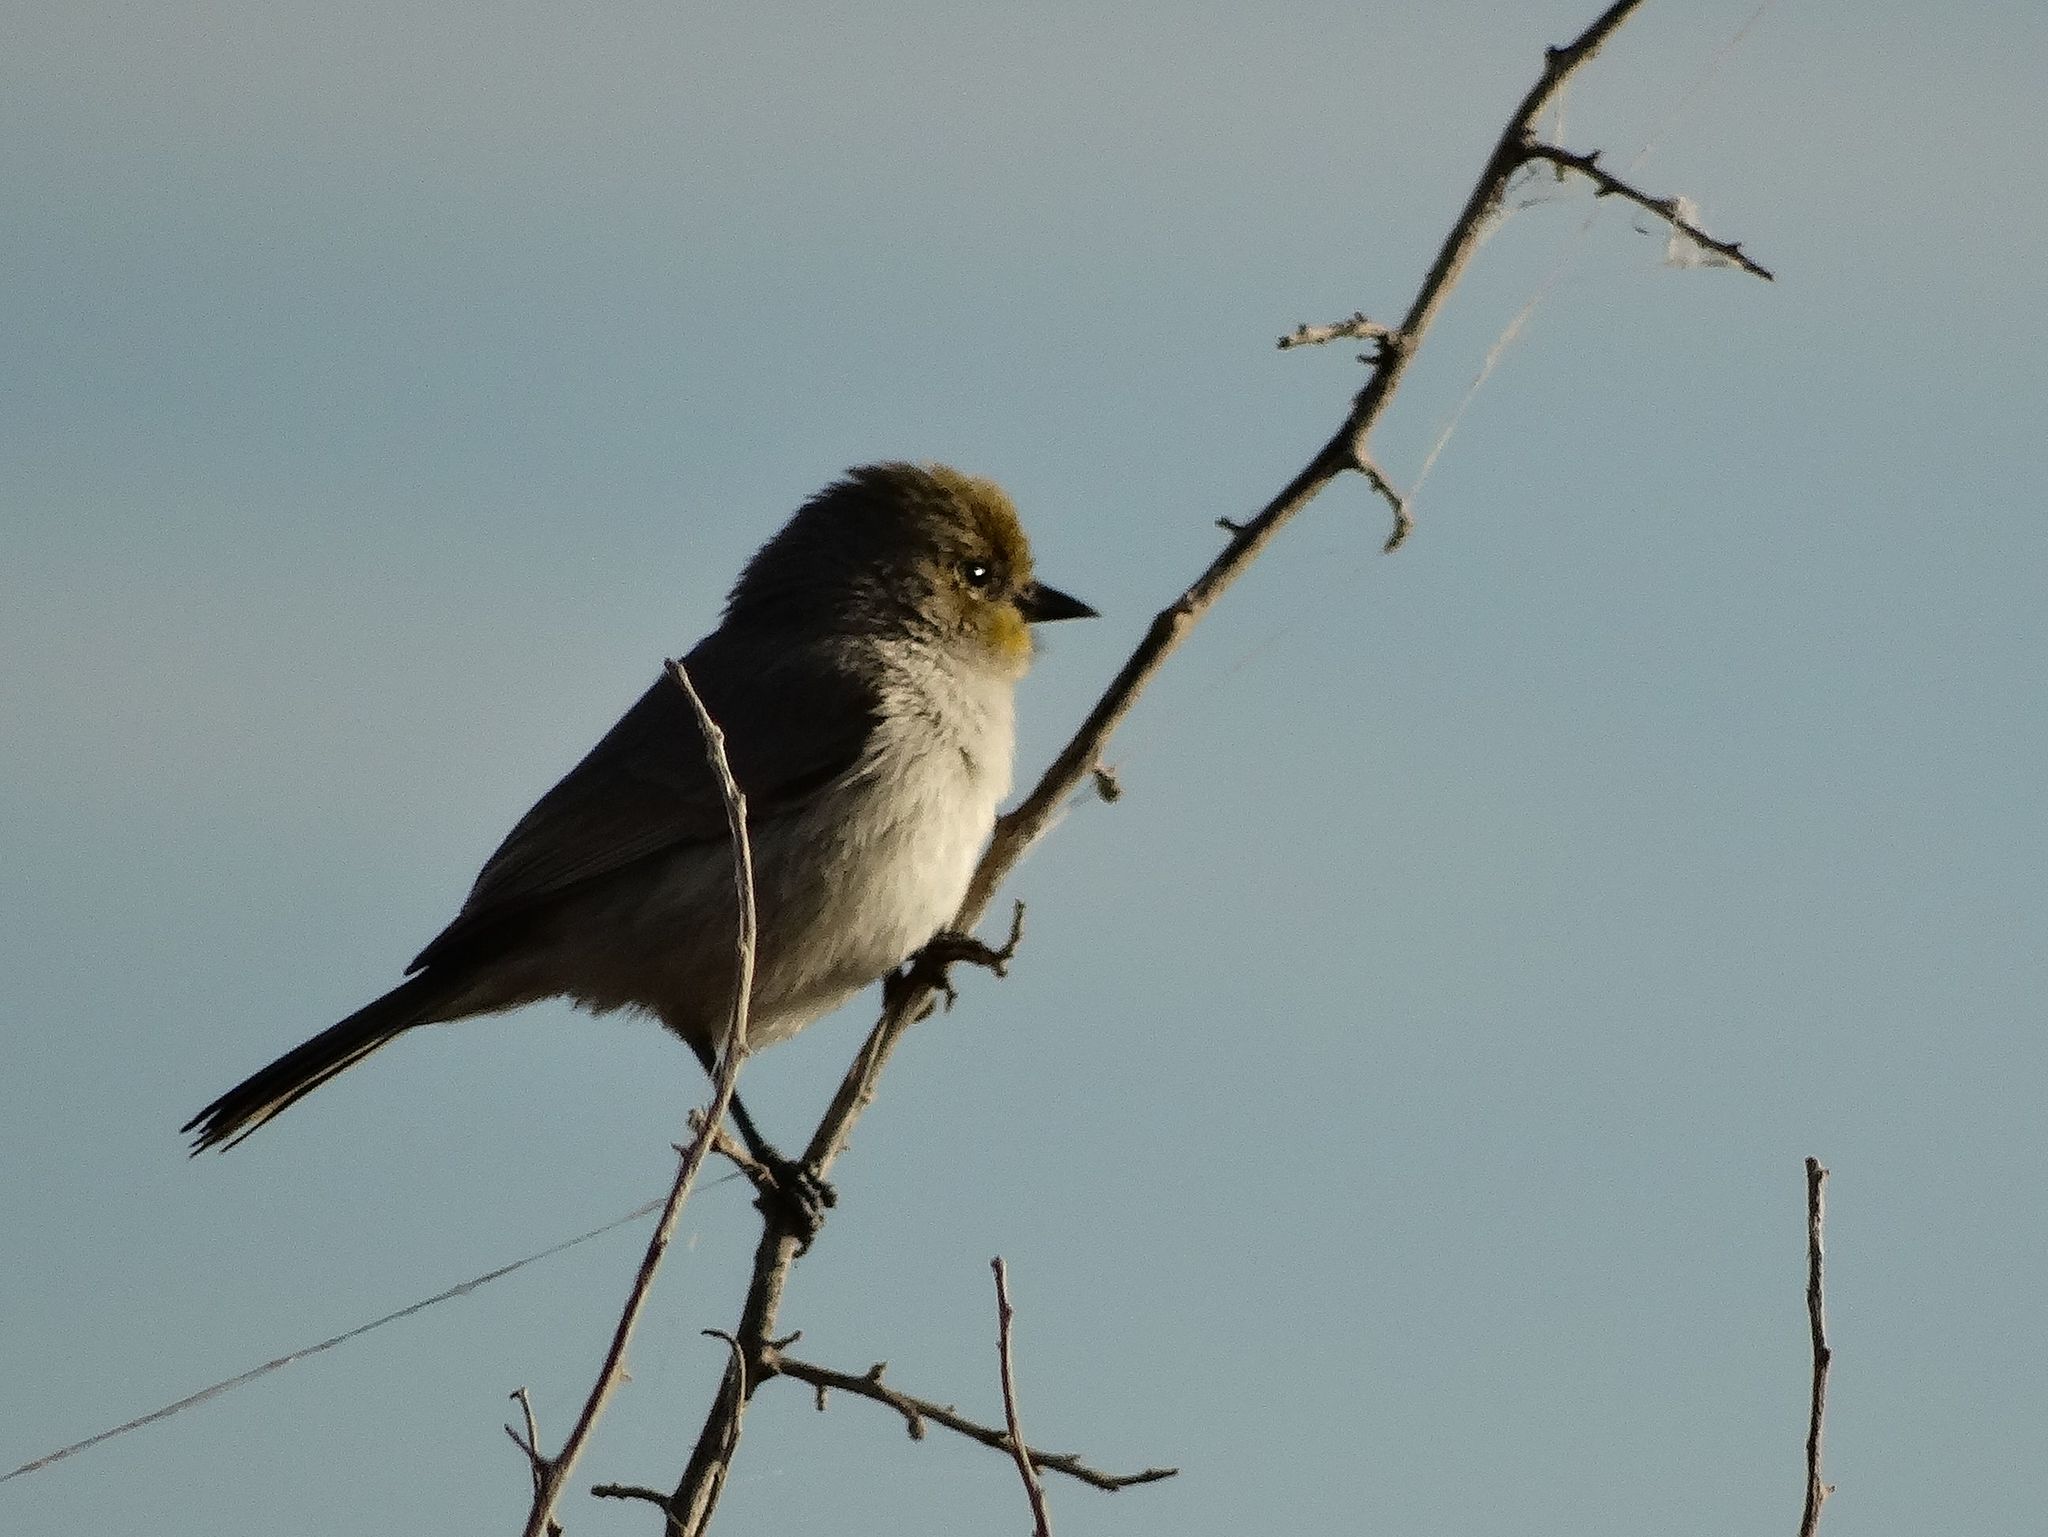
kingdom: Animalia
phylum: Chordata
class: Aves
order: Passeriformes
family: Remizidae
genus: Auriparus
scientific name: Auriparus flaviceps
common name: Verdin
